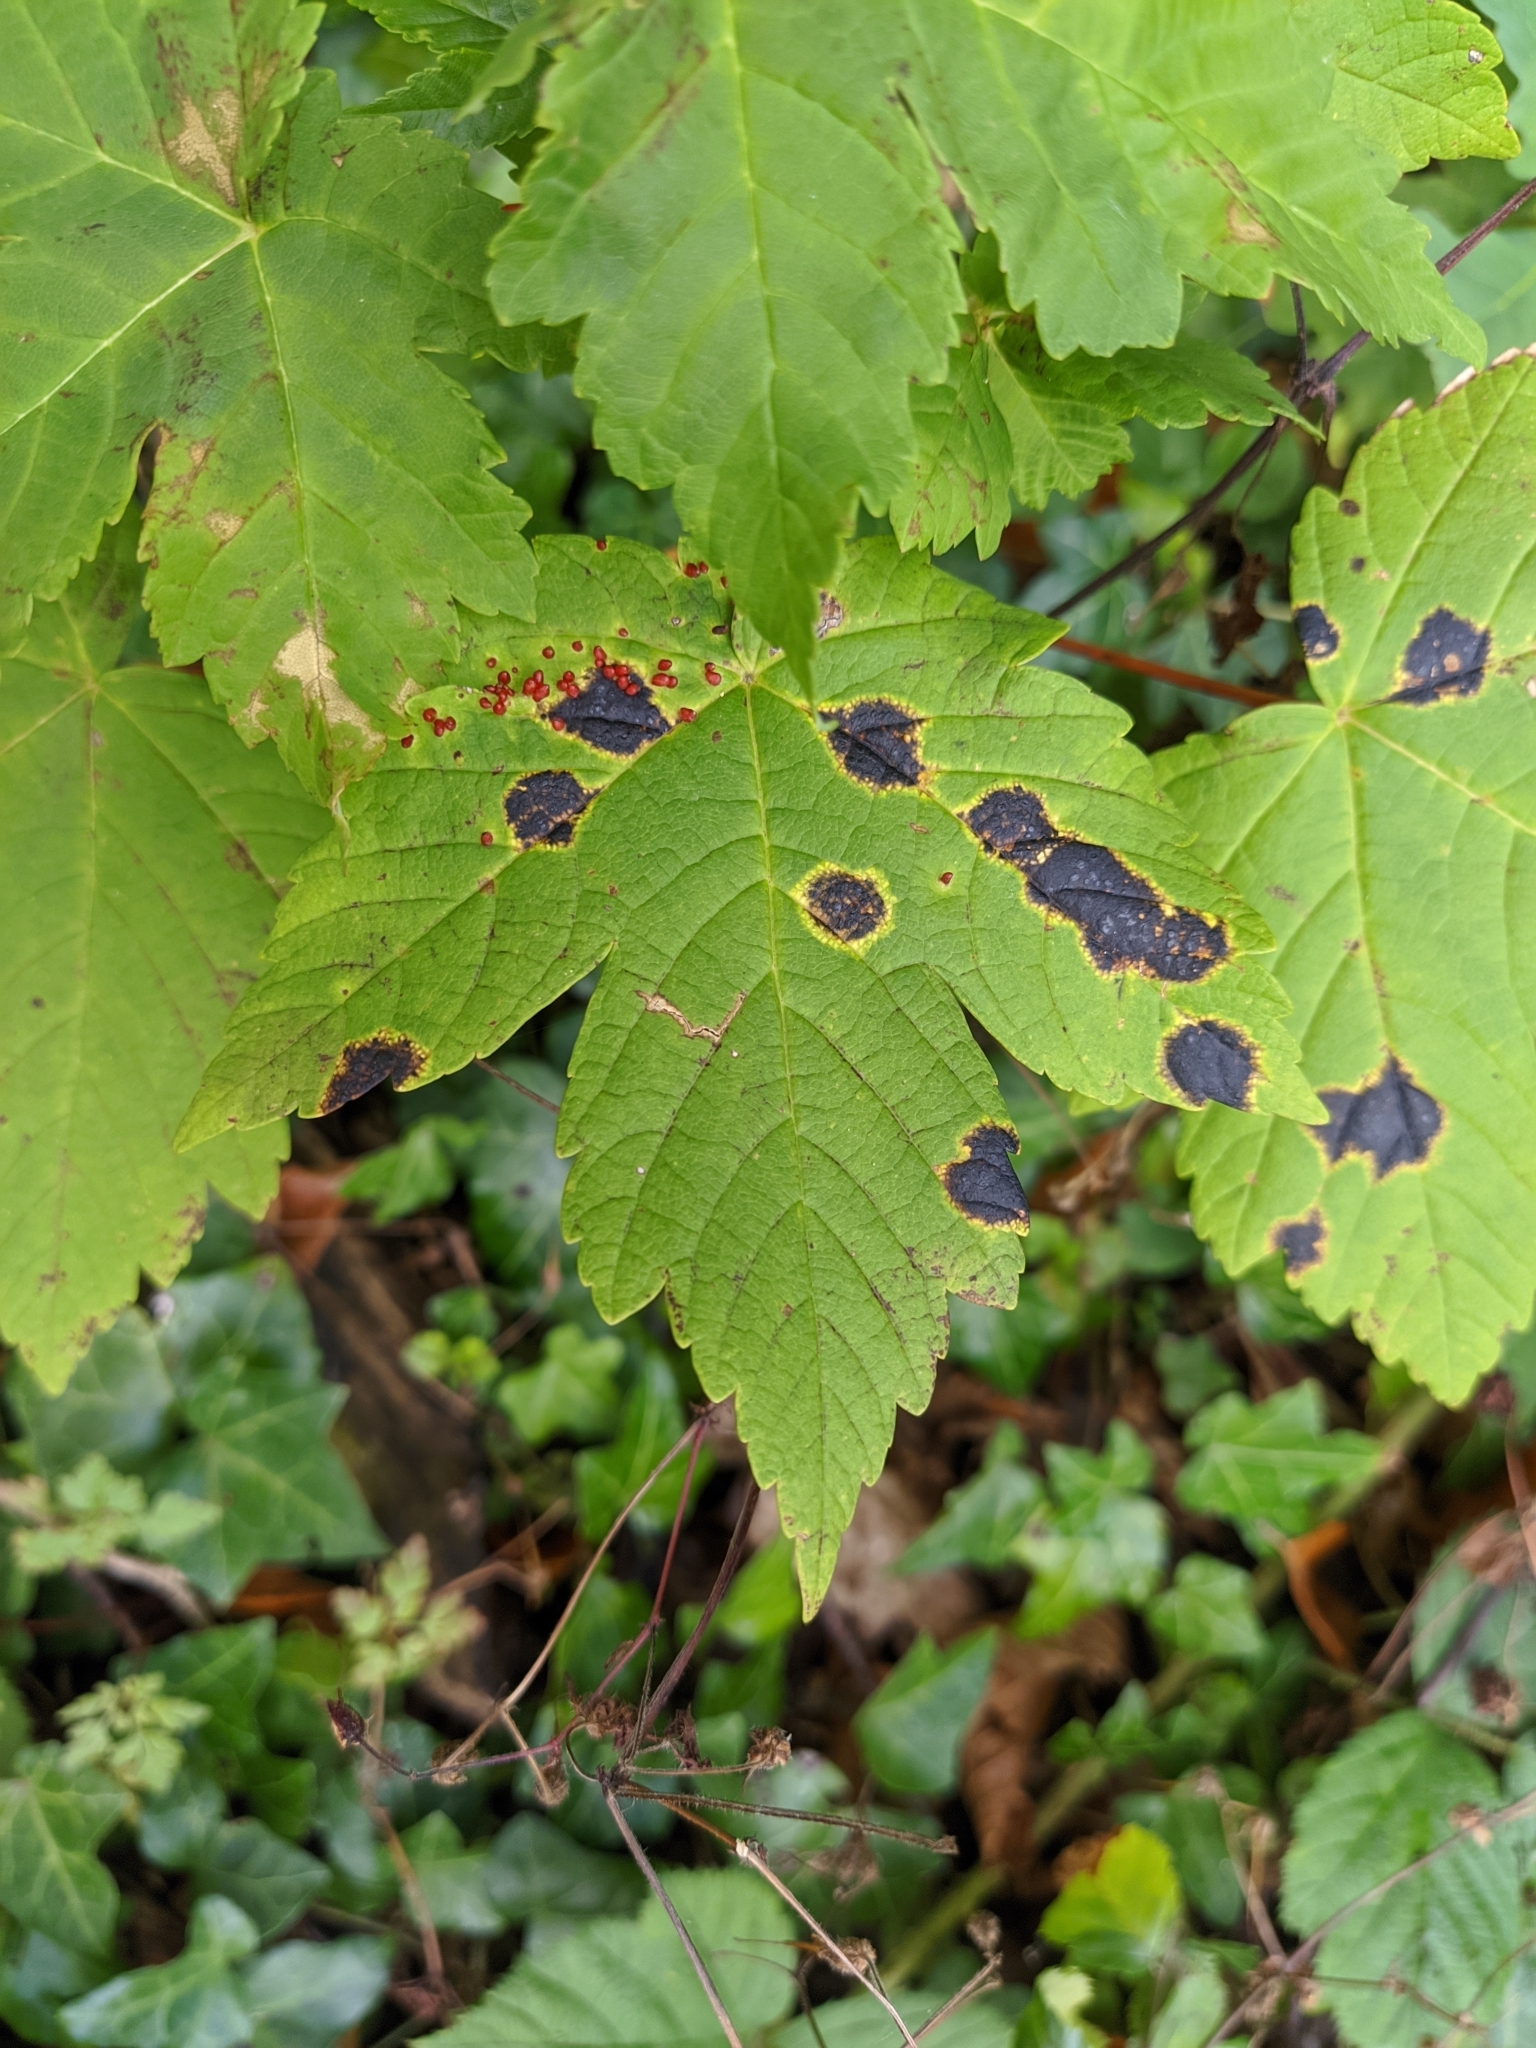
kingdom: Fungi
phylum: Ascomycota
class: Leotiomycetes
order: Rhytismatales
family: Rhytismataceae
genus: Rhytisma
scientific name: Rhytisma acerinum
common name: European tar spot
